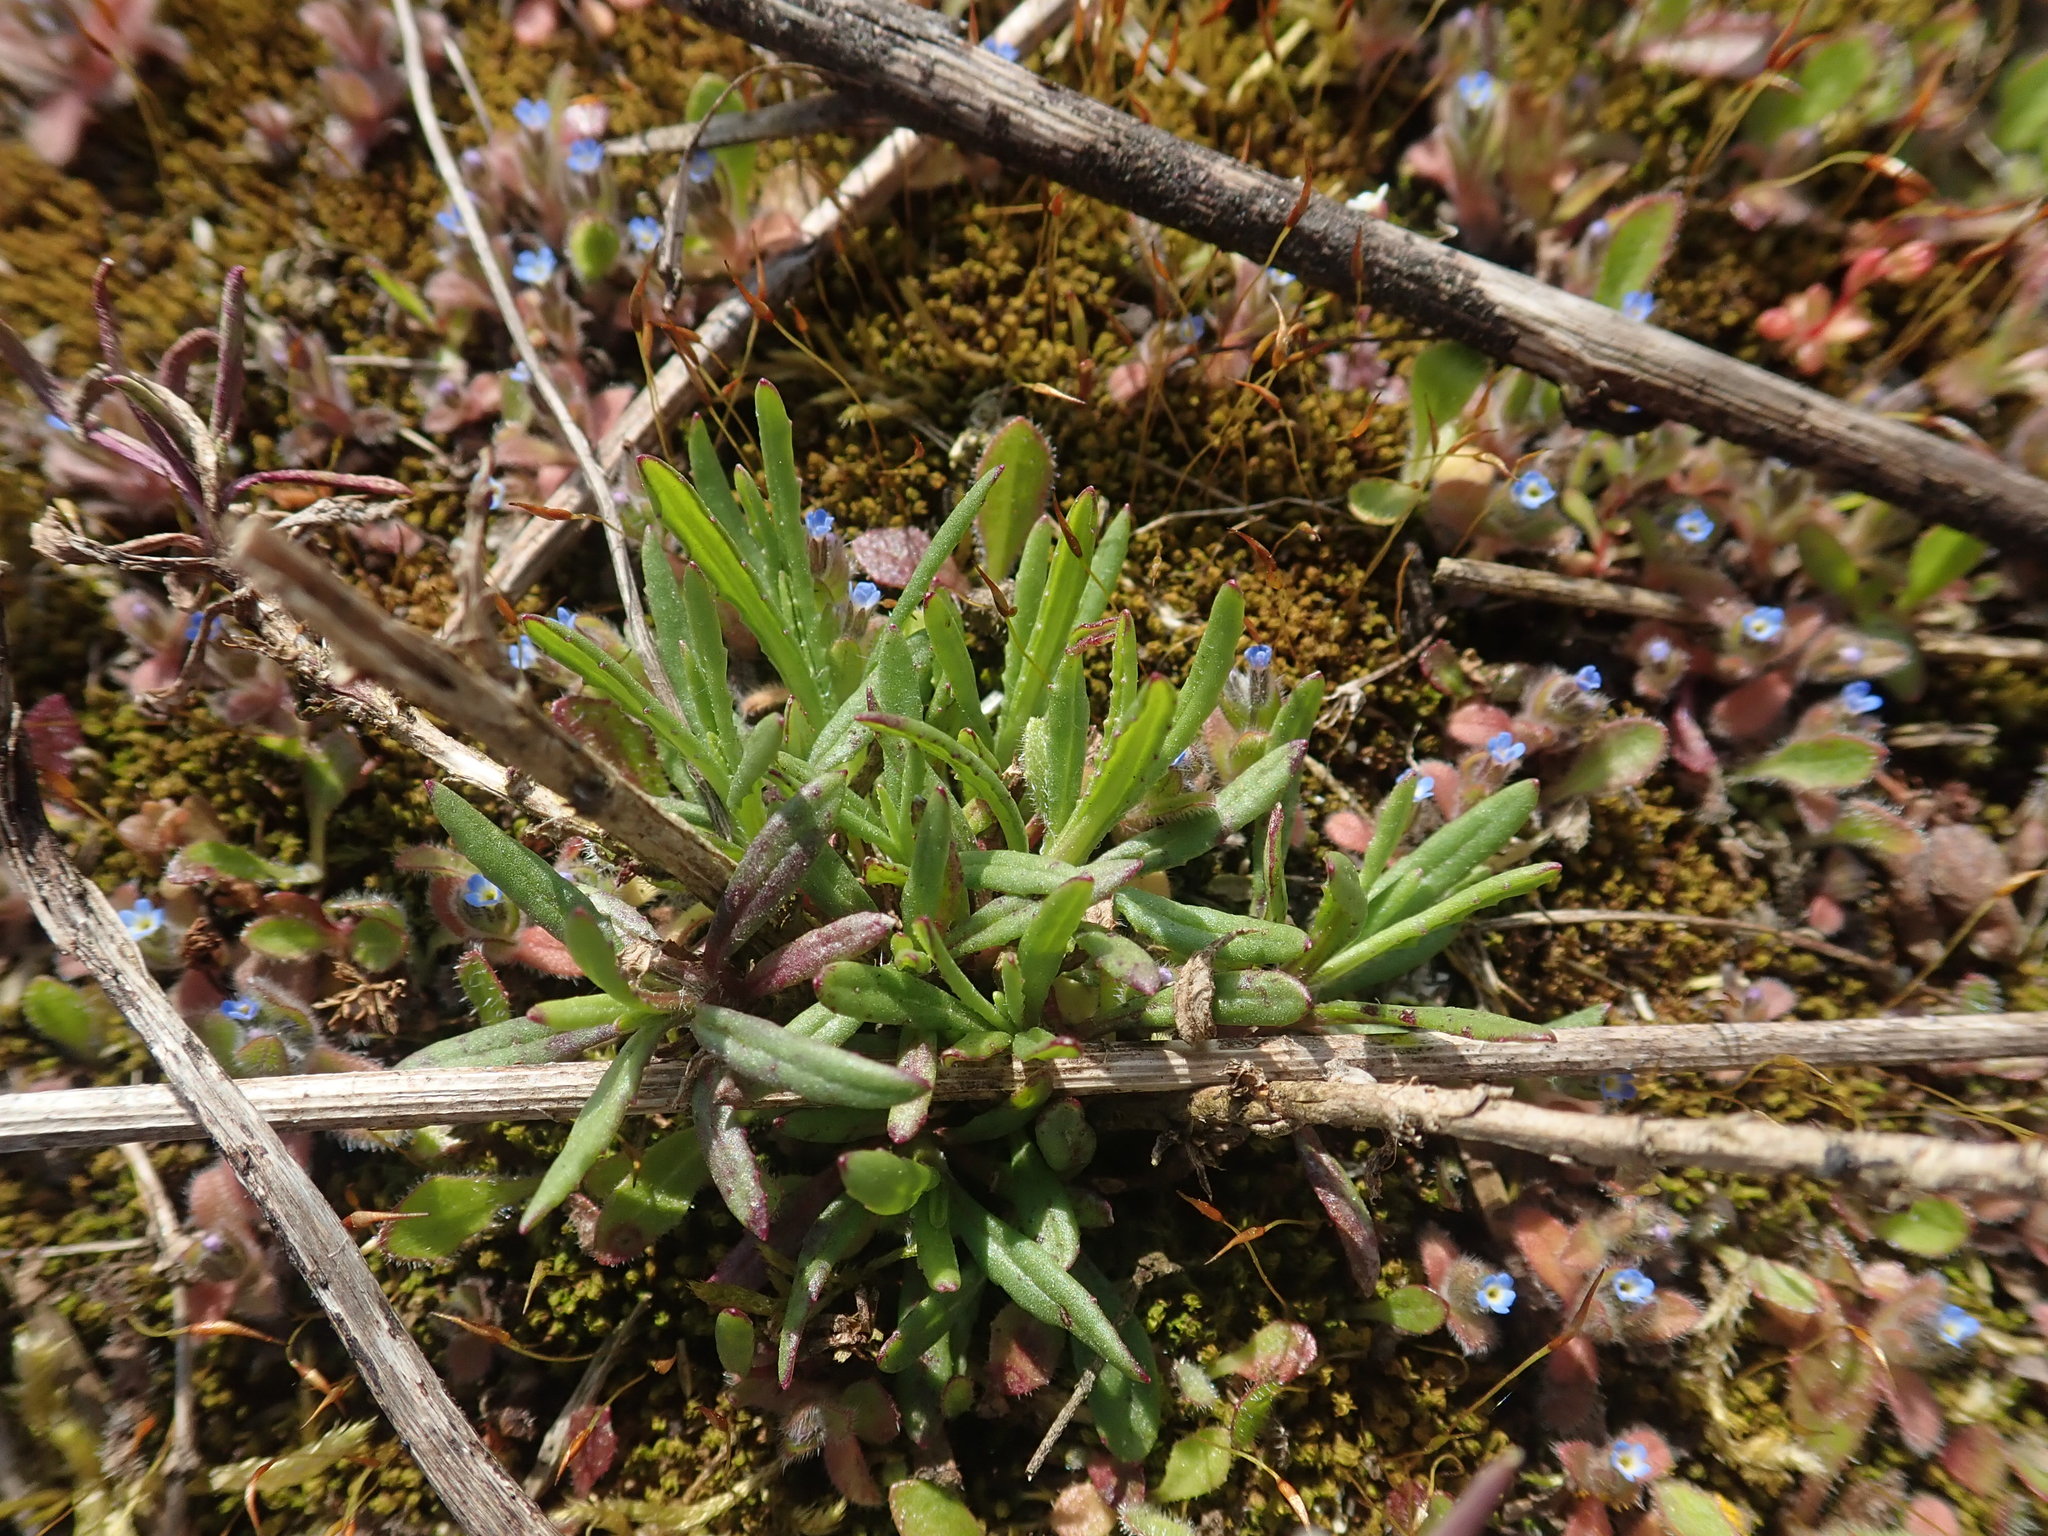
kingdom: Plantae
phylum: Tracheophyta
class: Magnoliopsida
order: Asterales
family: Asteraceae
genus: Senecio
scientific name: Senecio inaequidens
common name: Narrow-leaved ragwort
